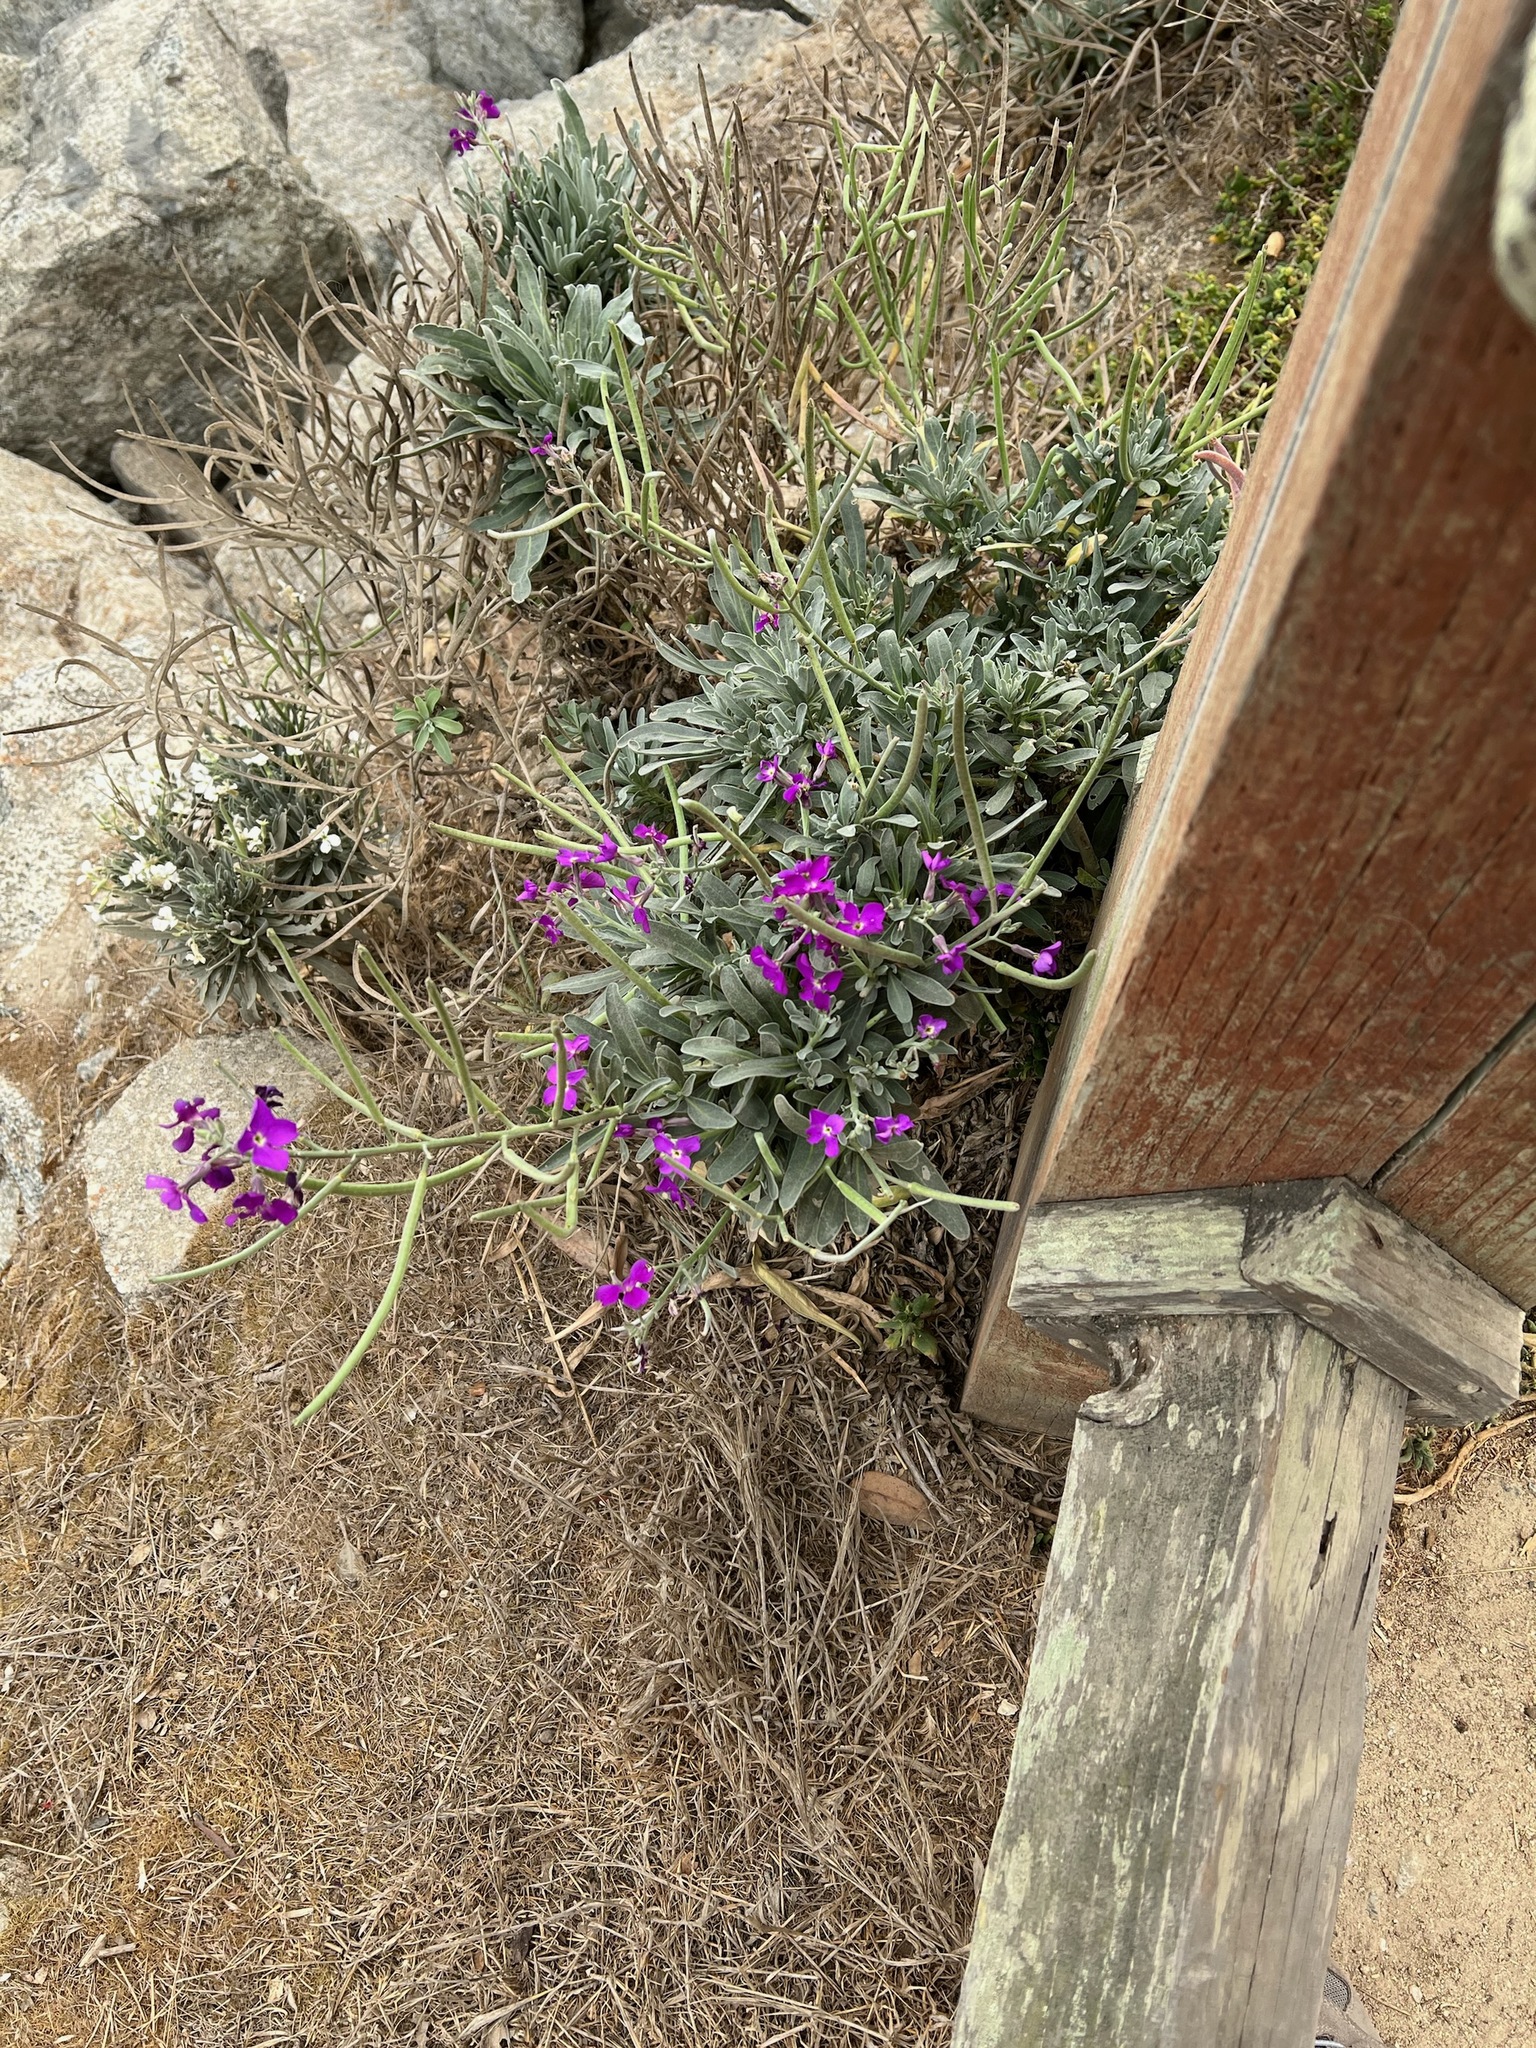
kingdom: Plantae
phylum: Tracheophyta
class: Magnoliopsida
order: Brassicales
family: Brassicaceae
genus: Matthiola
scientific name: Matthiola incana
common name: Hoary stock
